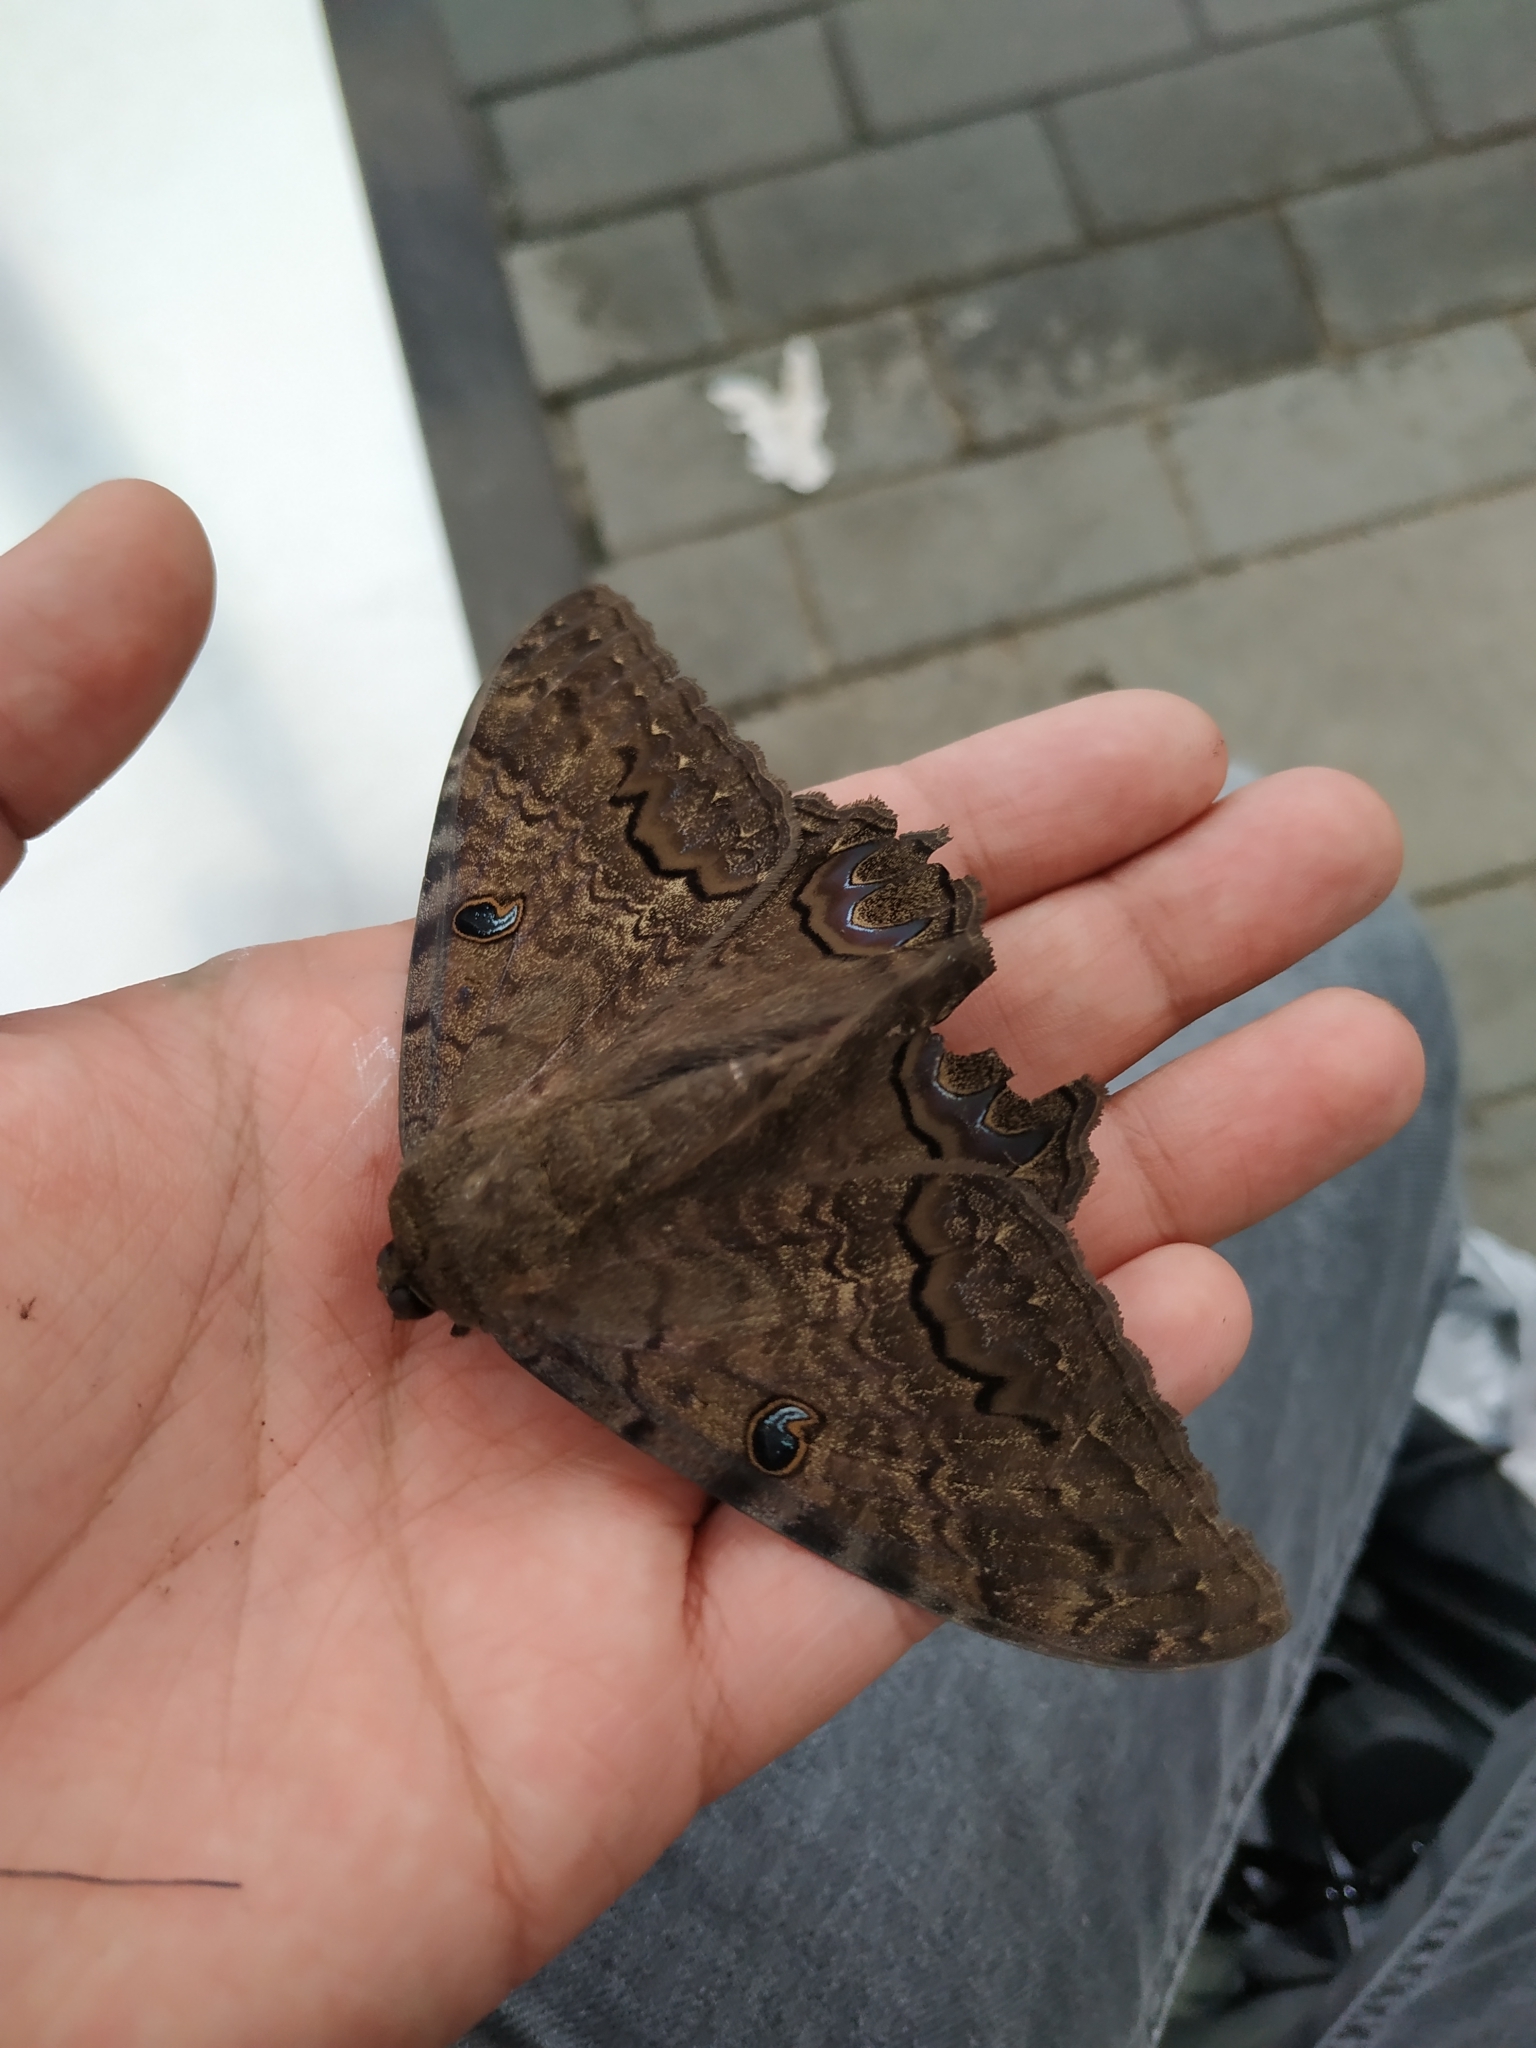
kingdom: Animalia
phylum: Arthropoda
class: Insecta
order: Lepidoptera
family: Erebidae
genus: Ascalapha
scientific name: Ascalapha odorata
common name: Black witch
